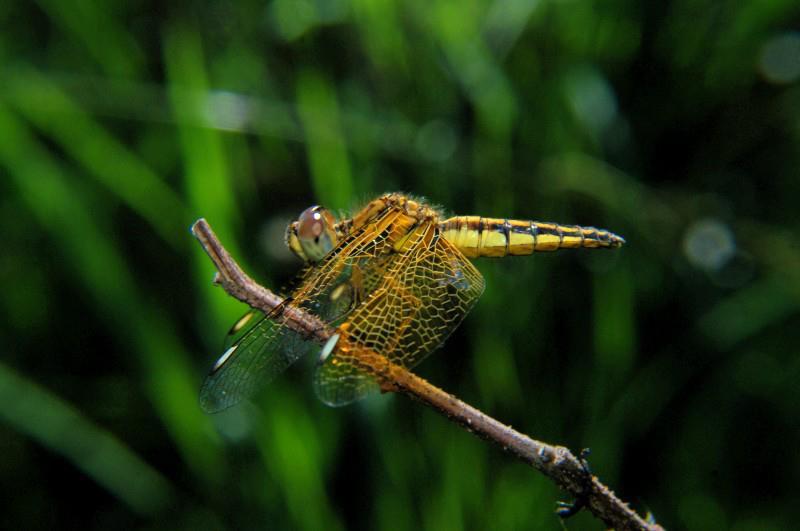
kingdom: Animalia
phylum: Arthropoda
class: Insecta
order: Odonata
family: Libellulidae
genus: Palpopleura
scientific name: Palpopleura sexmaculata
